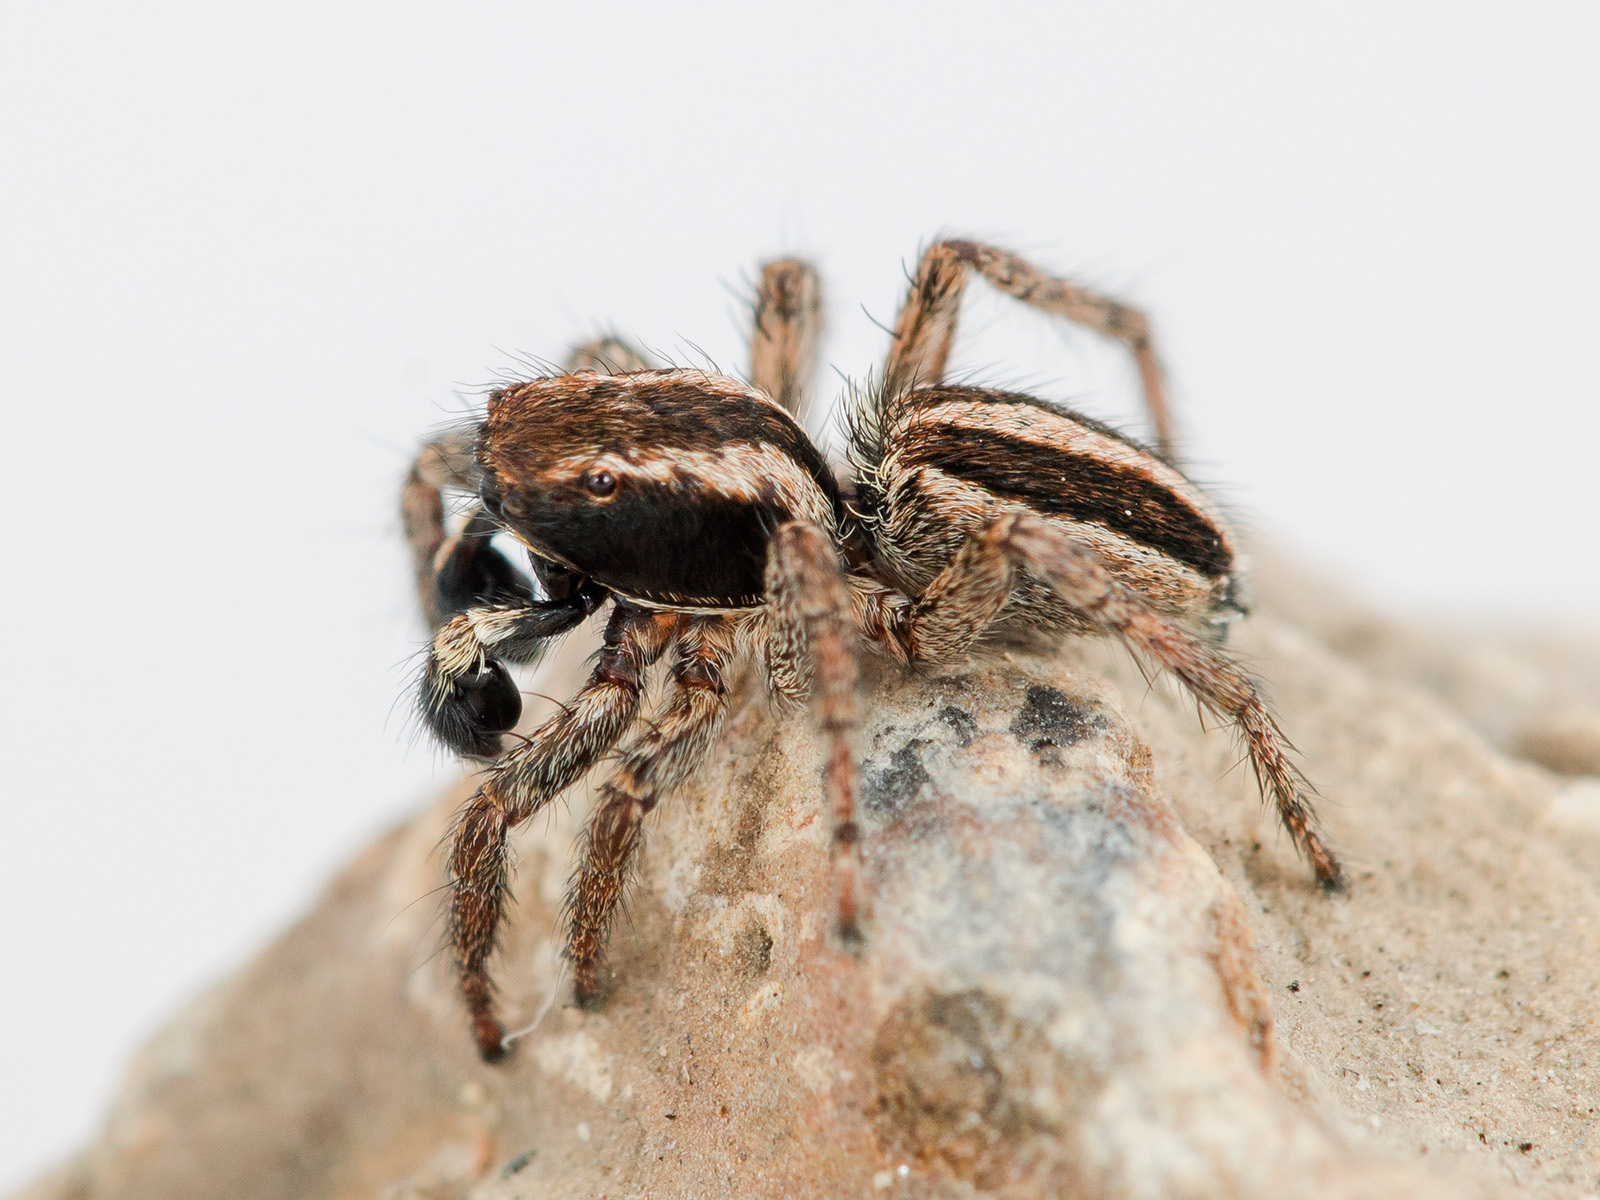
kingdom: Animalia
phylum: Arthropoda
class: Arachnida
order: Araneae
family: Salticidae
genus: Phlegra
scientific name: Phlegra andreevae
